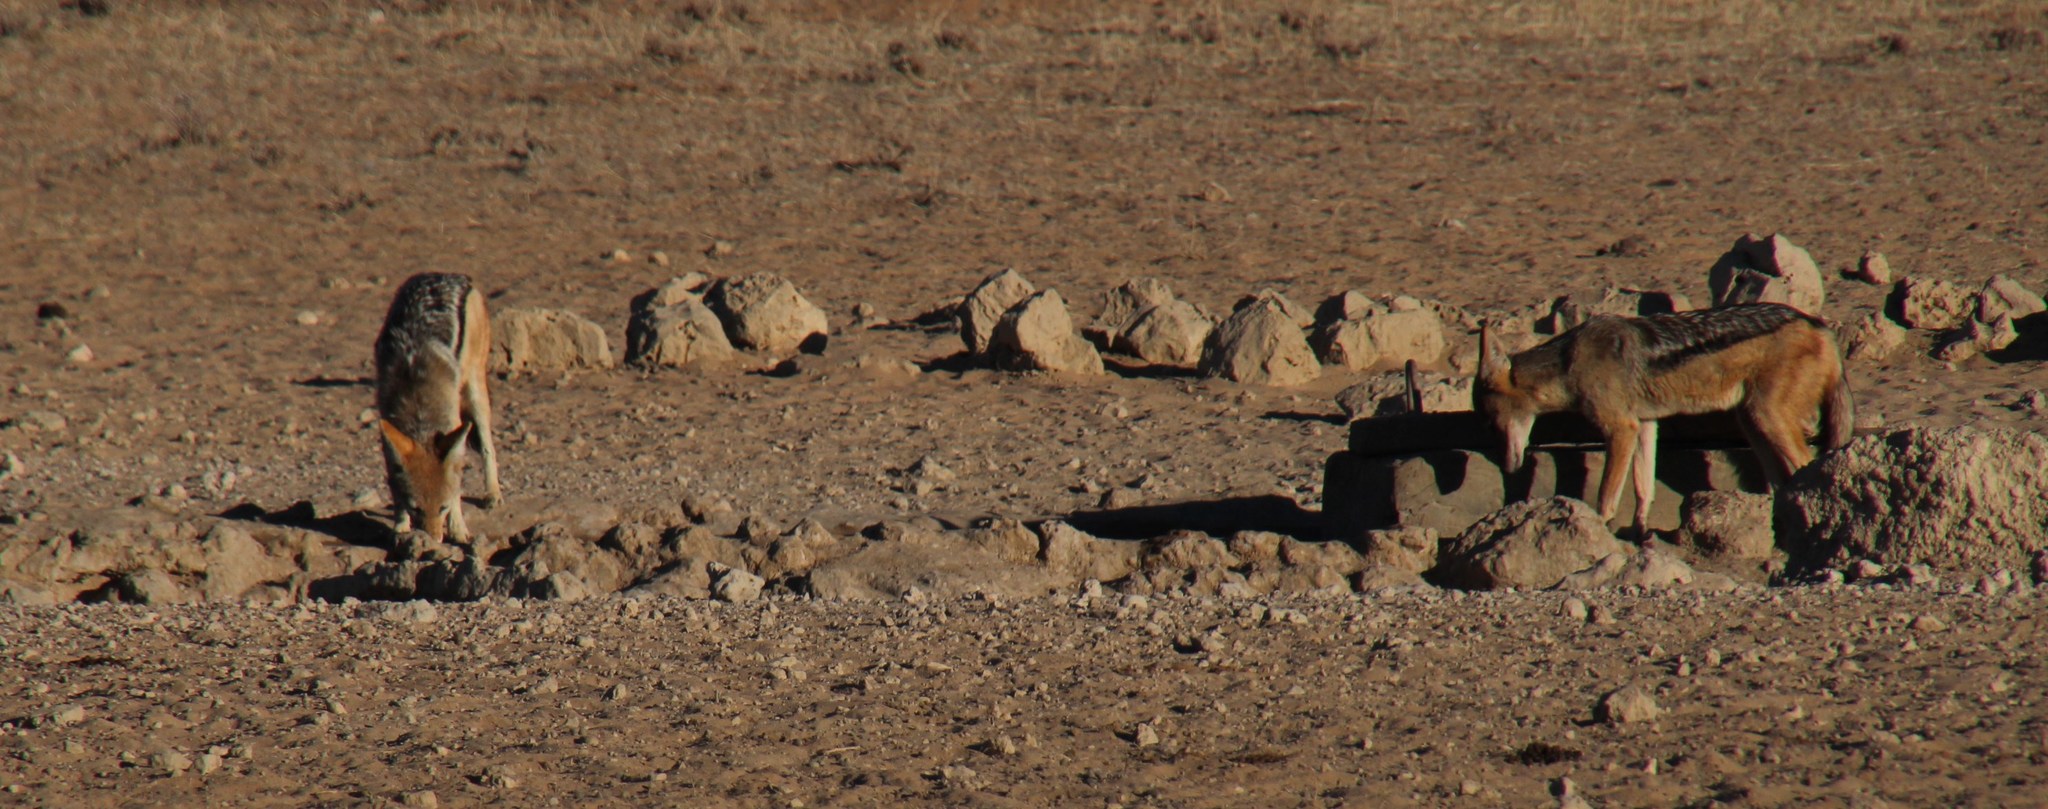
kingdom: Animalia
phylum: Chordata
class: Mammalia
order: Carnivora
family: Canidae
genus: Lupulella
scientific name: Lupulella
